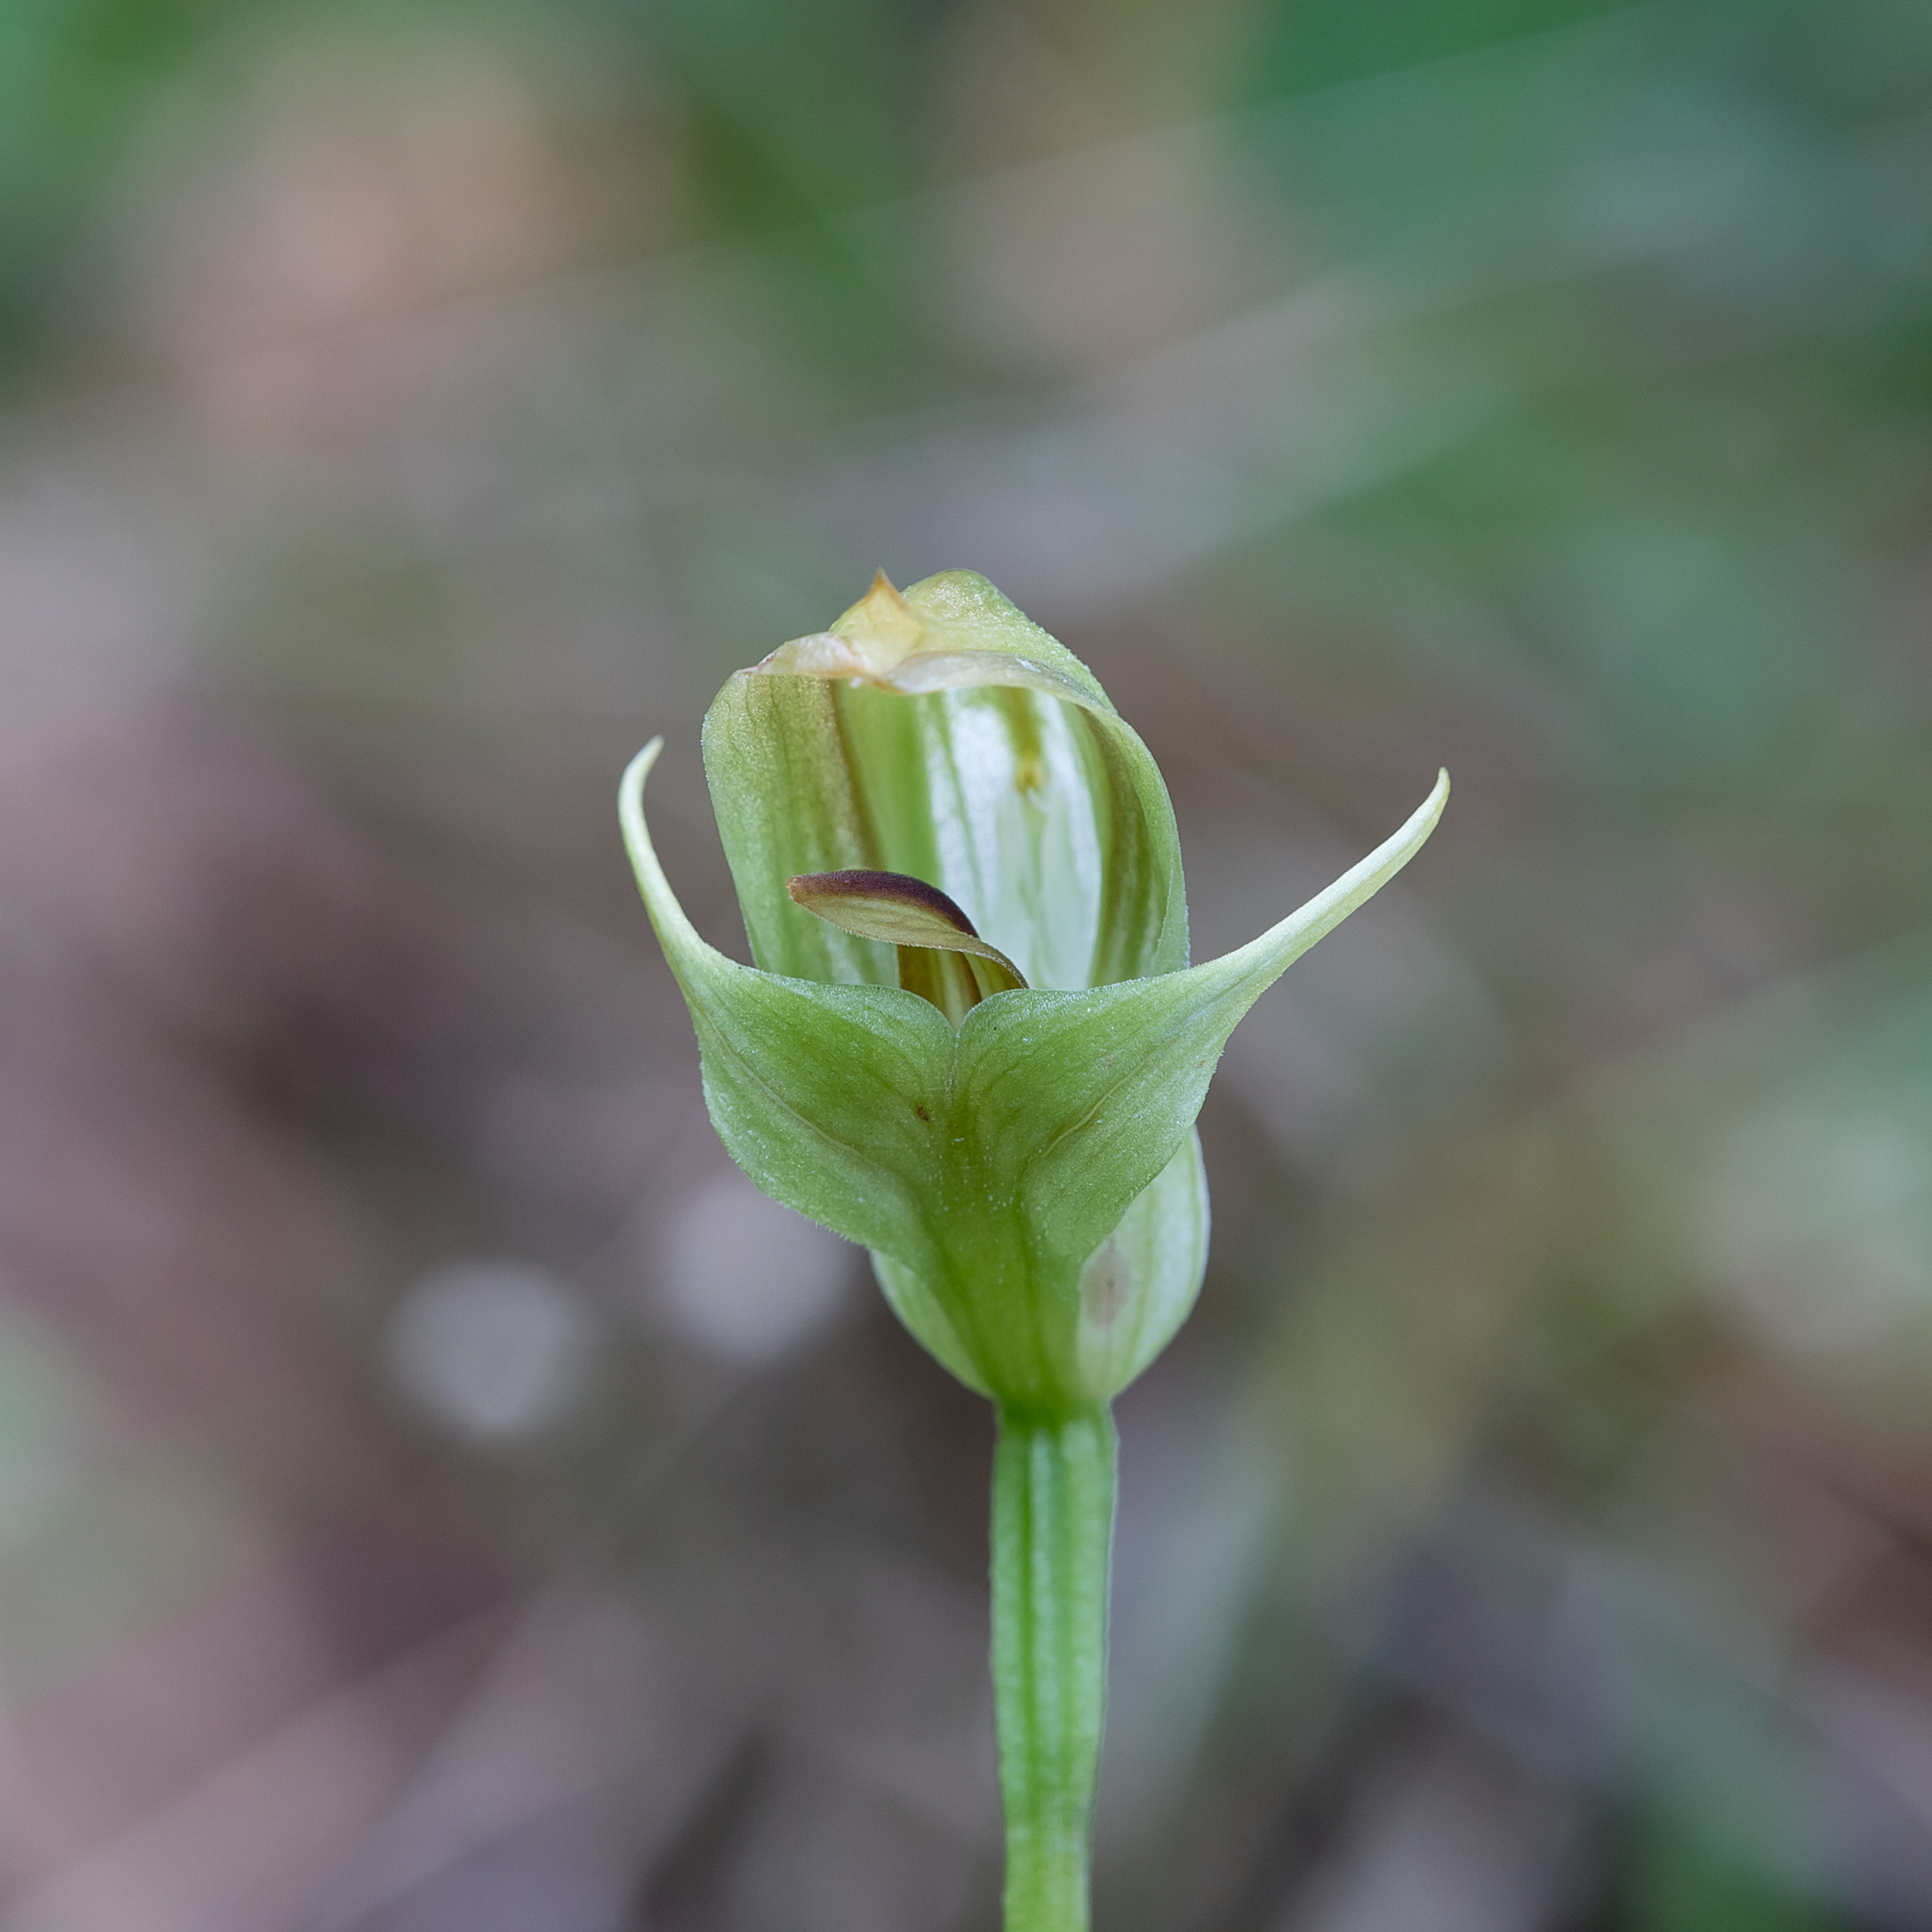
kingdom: Plantae
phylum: Tracheophyta
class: Liliopsida
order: Asparagales
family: Orchidaceae
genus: Pterostylis
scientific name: Pterostylis curta
